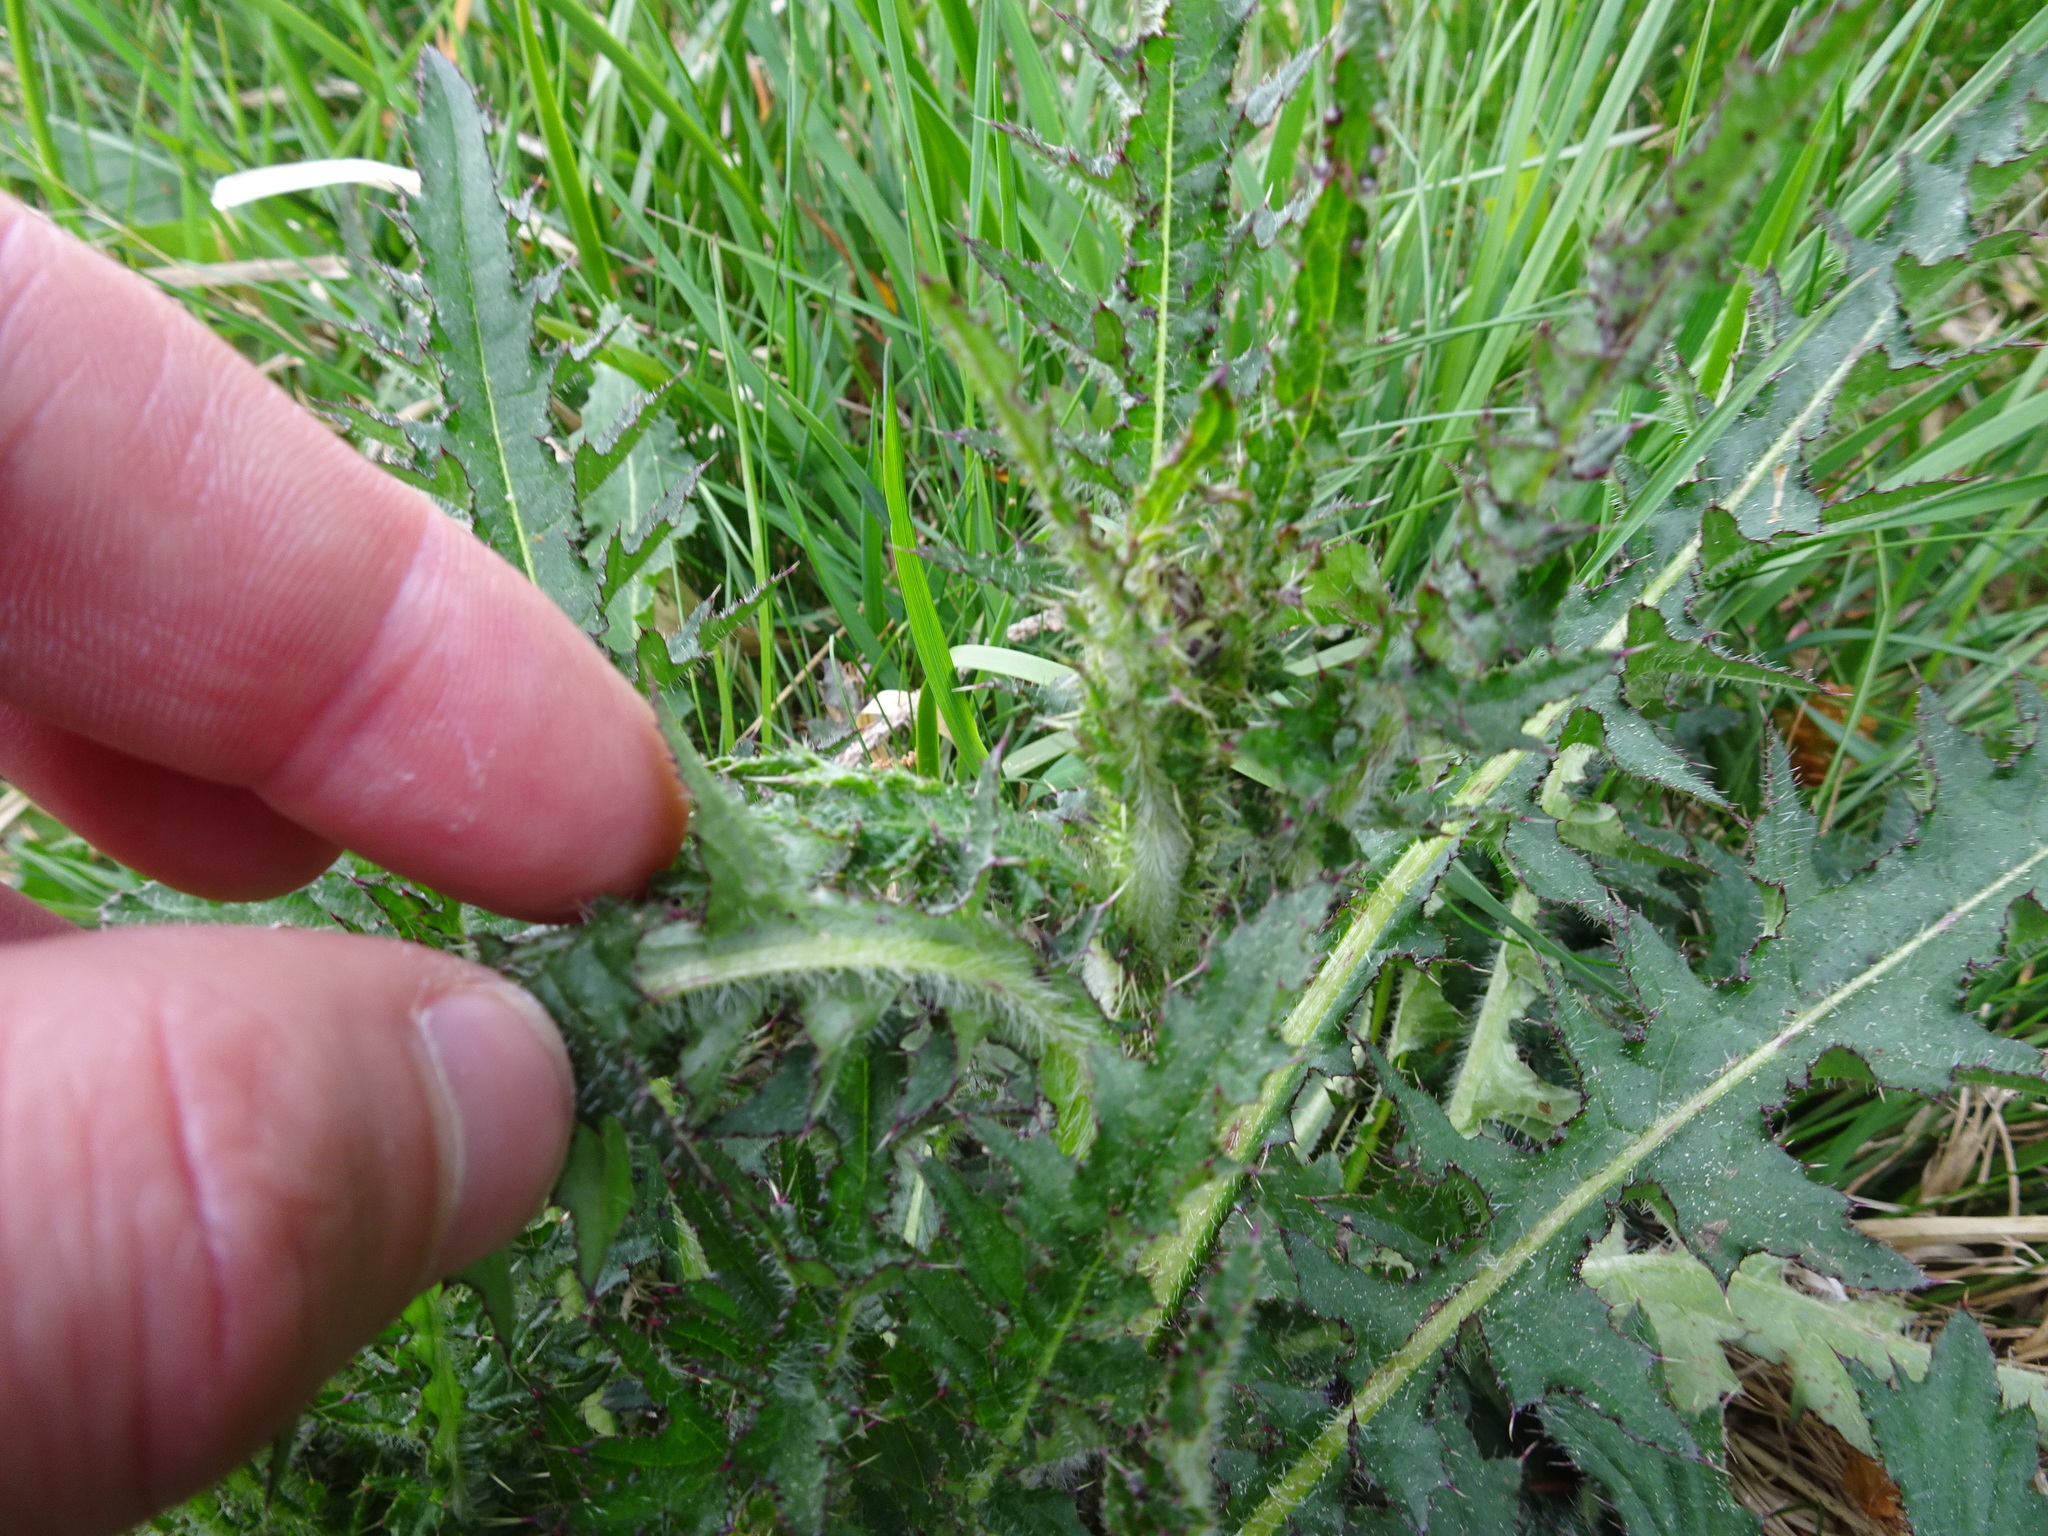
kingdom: Plantae
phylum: Tracheophyta
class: Magnoliopsida
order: Asterales
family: Asteraceae
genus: Cirsium
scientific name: Cirsium palustre
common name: Marsh thistle
